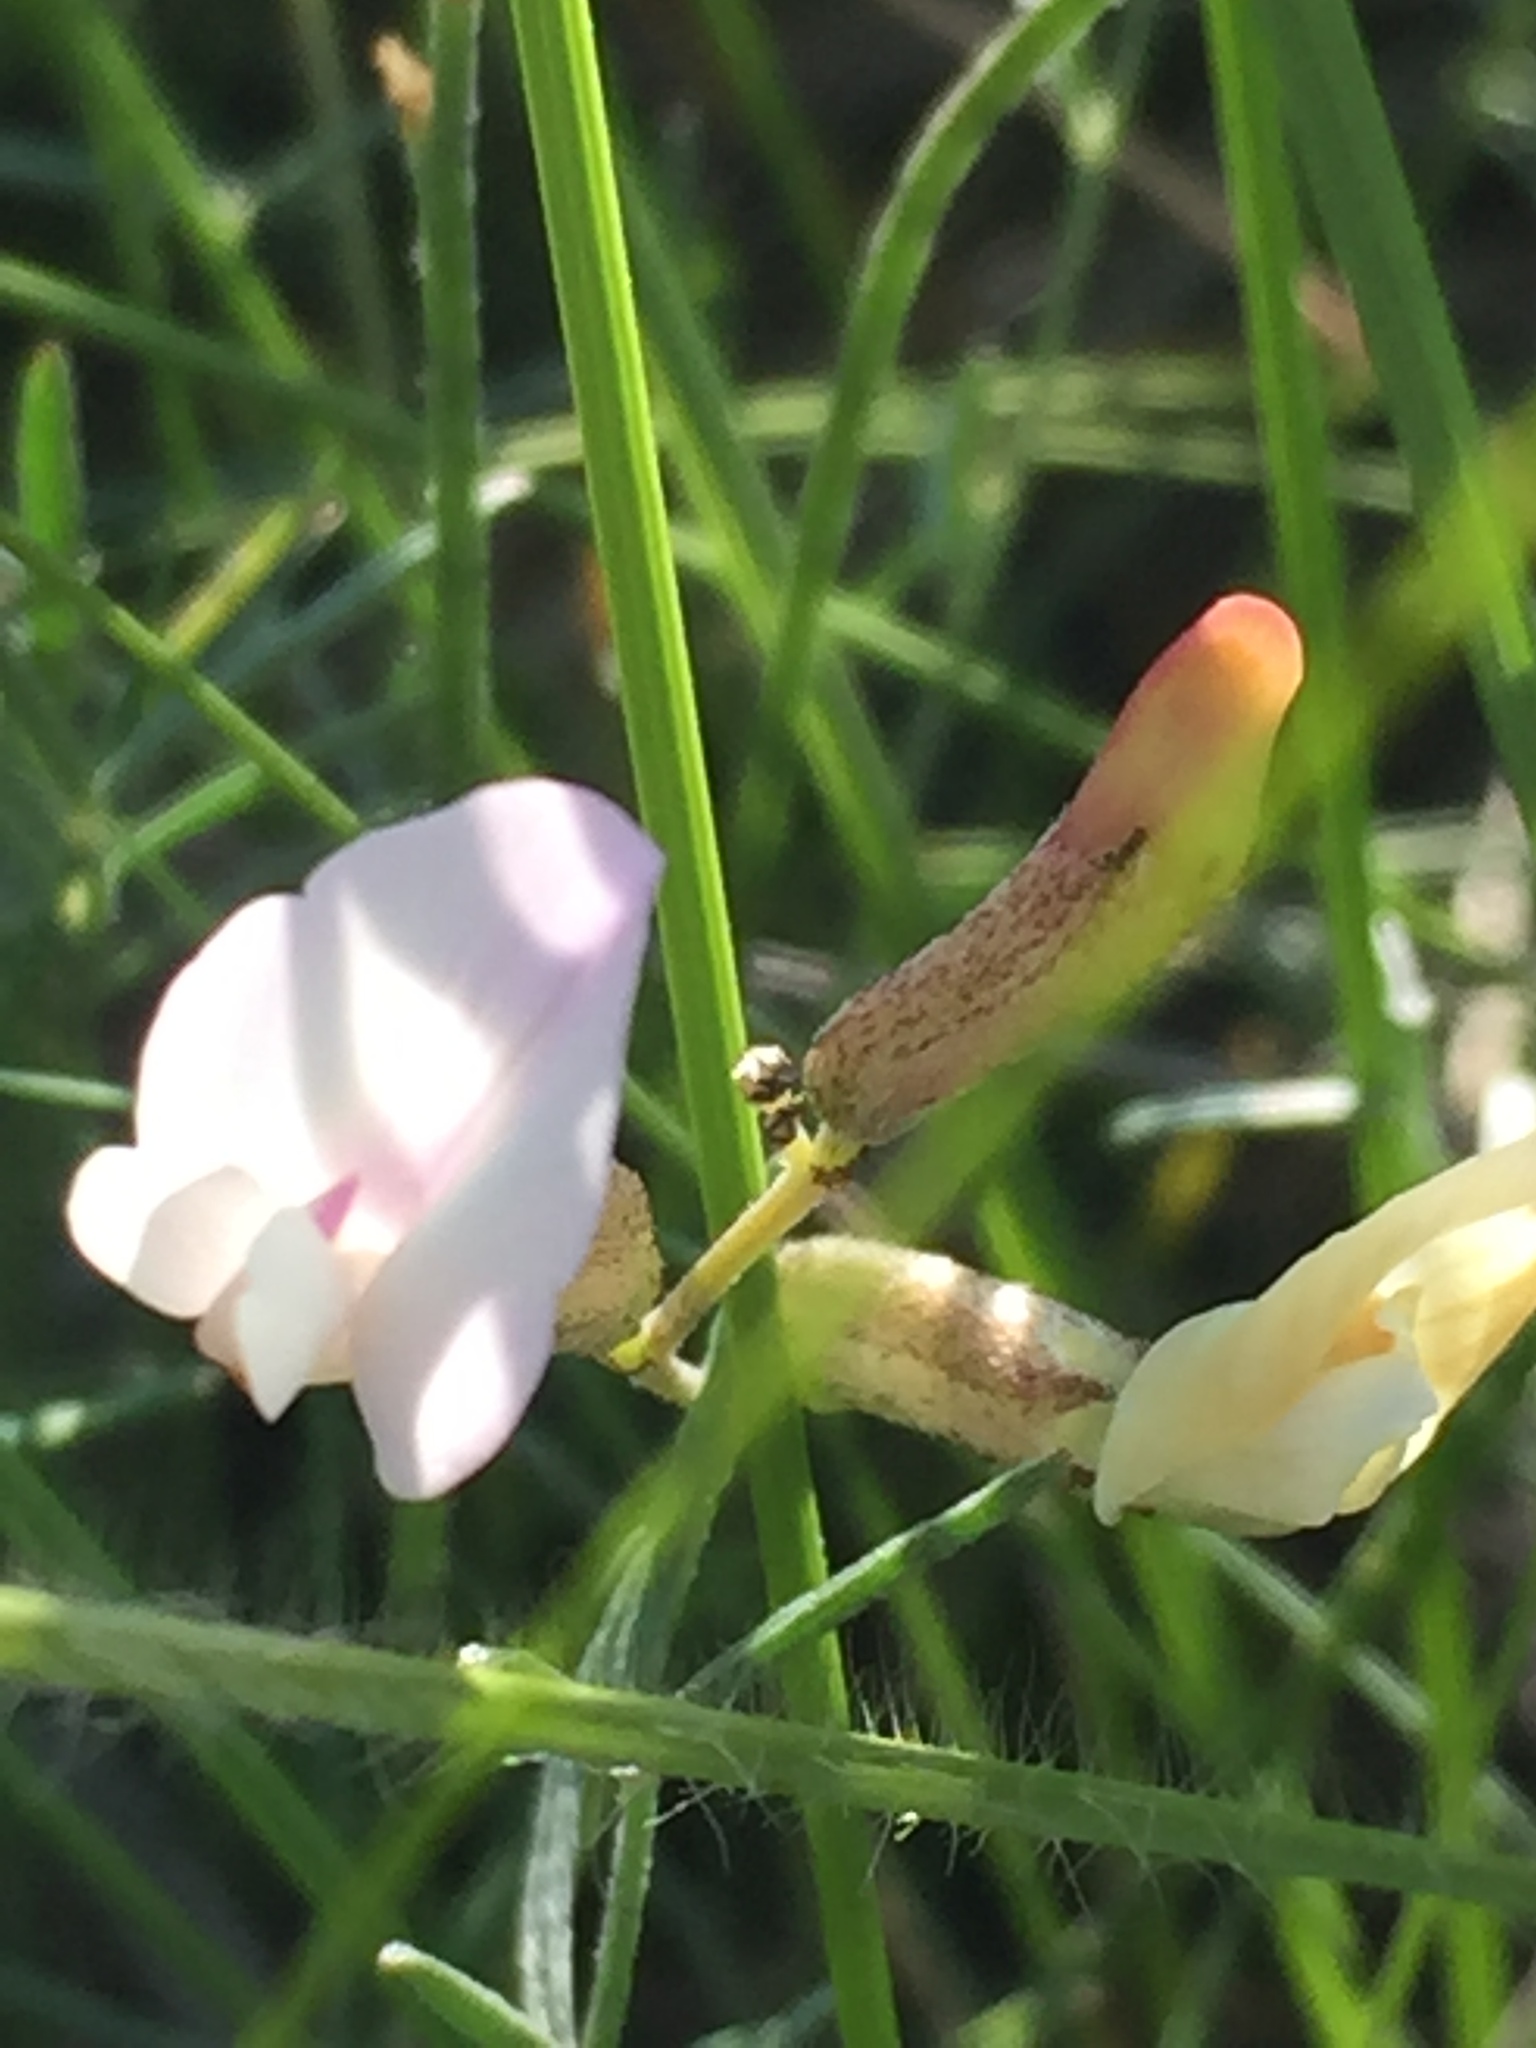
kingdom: Plantae
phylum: Tracheophyta
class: Magnoliopsida
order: Fabales
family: Fabaceae
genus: Astragalus
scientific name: Astragalus ucrainicus
